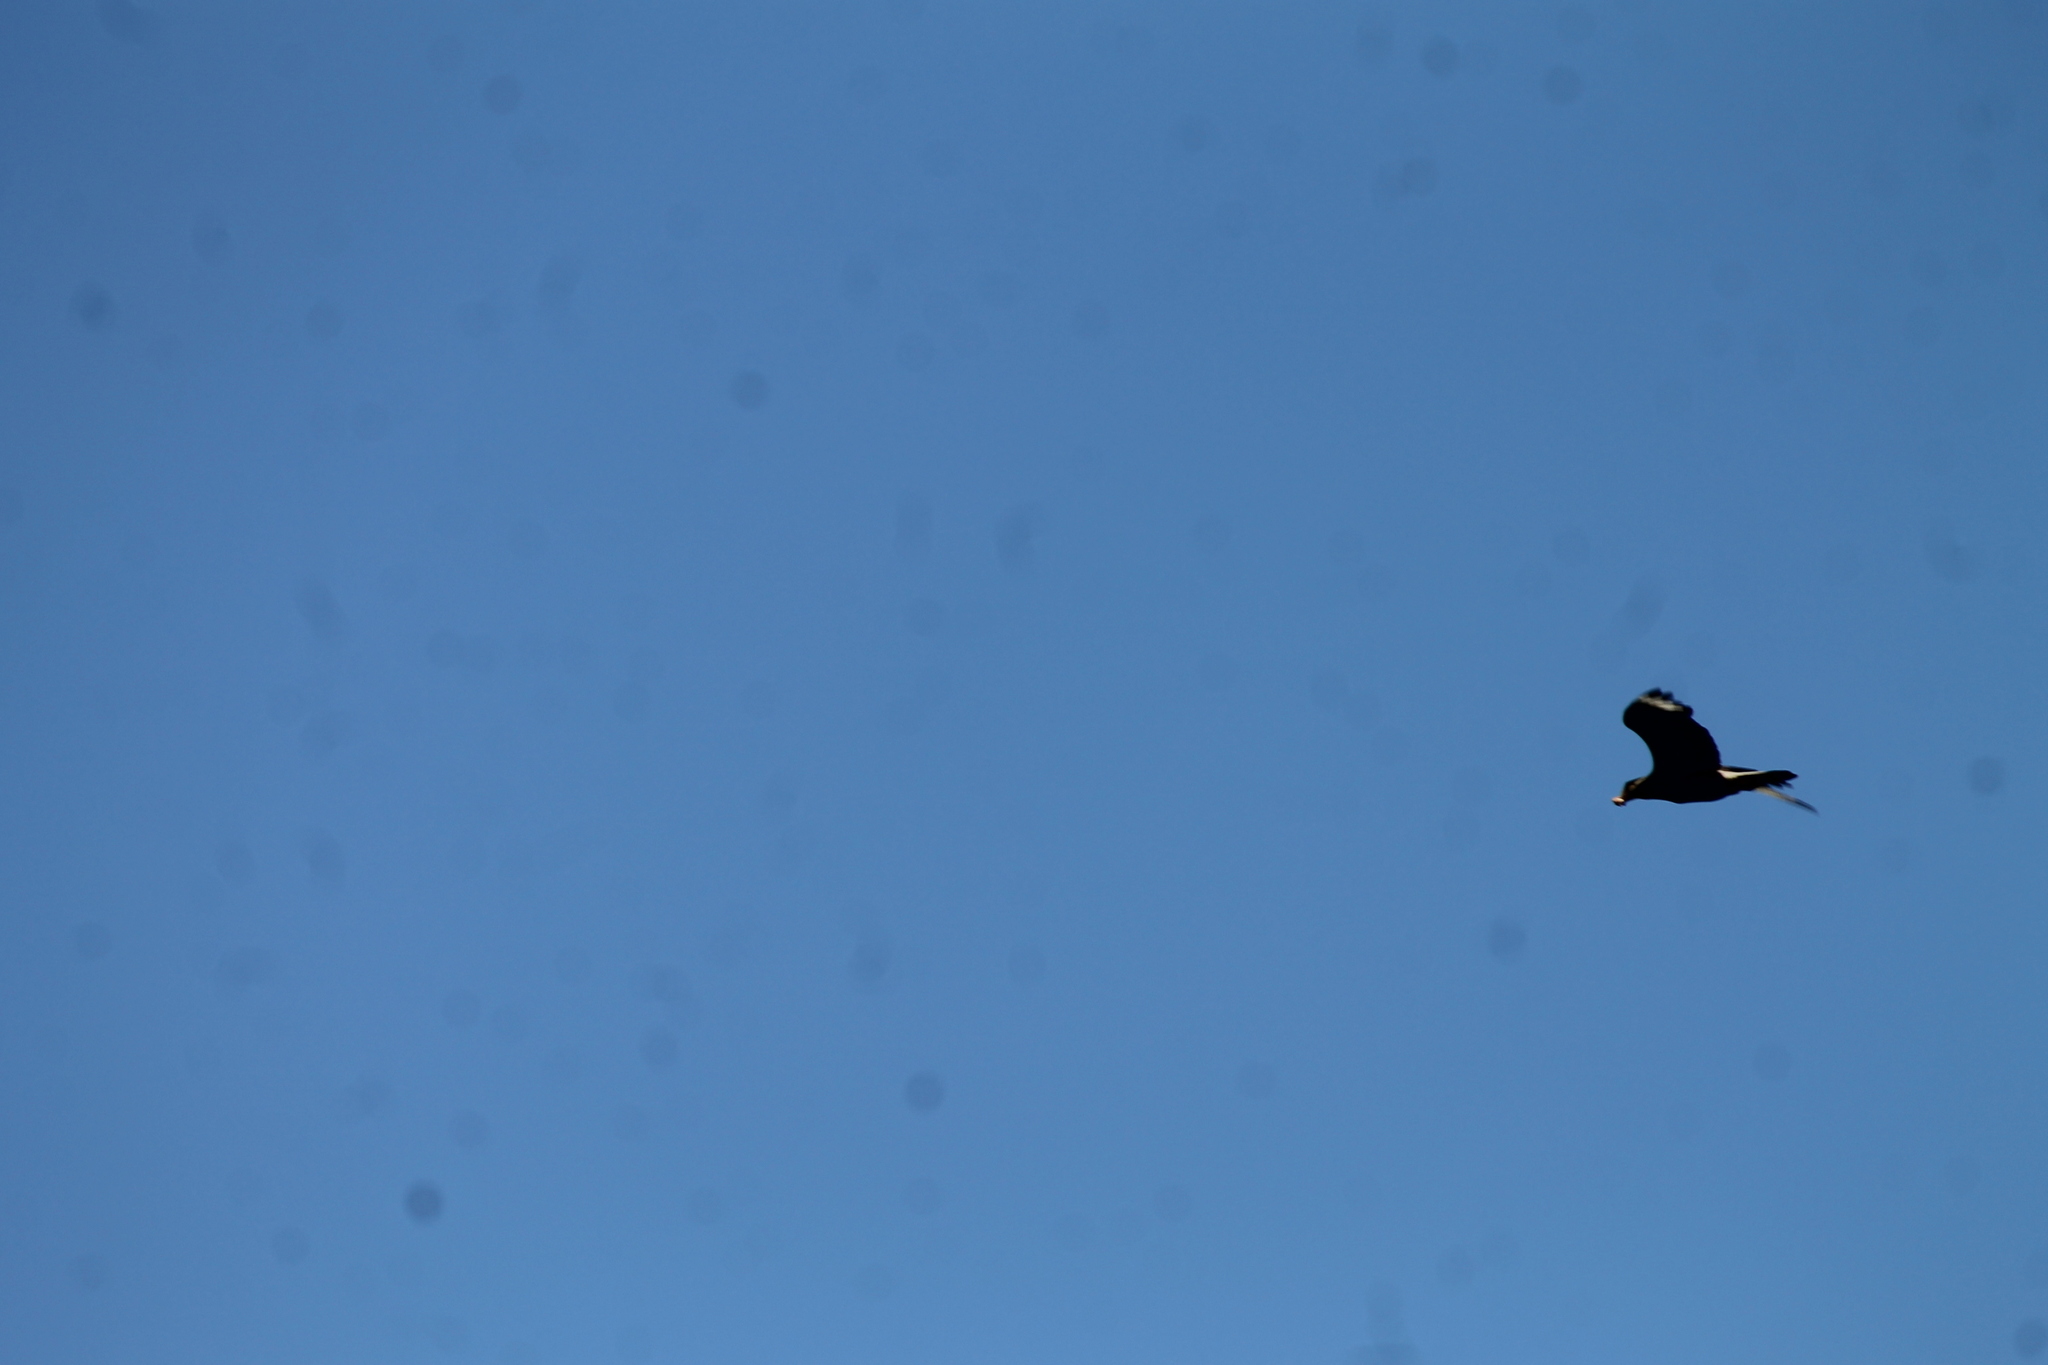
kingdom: Animalia
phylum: Chordata
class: Aves
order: Falconiformes
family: Falconidae
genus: Caracara
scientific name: Caracara plancus
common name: Southern caracara
